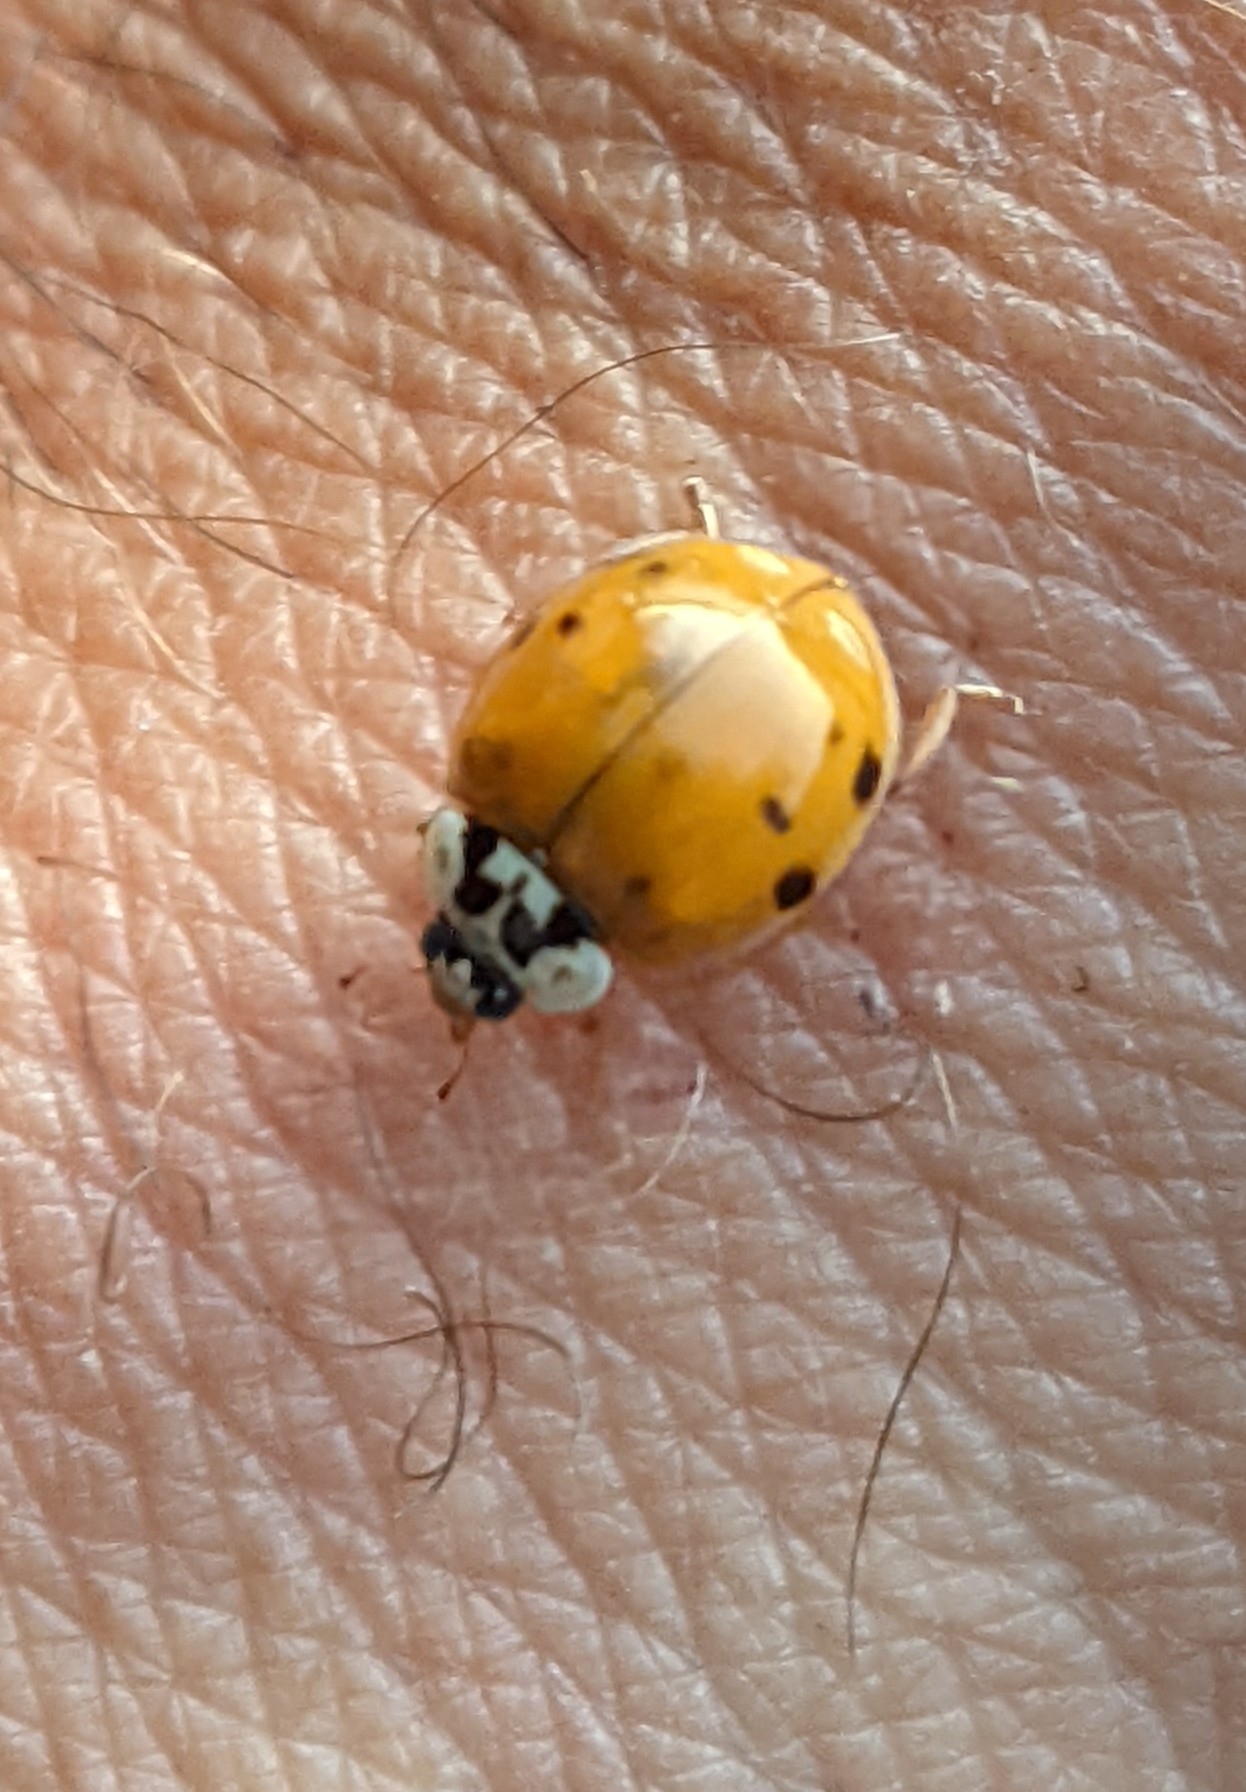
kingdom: Animalia
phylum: Arthropoda
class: Insecta
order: Coleoptera
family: Coccinellidae
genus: Harmonia
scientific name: Harmonia axyridis
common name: Harlequin ladybird
